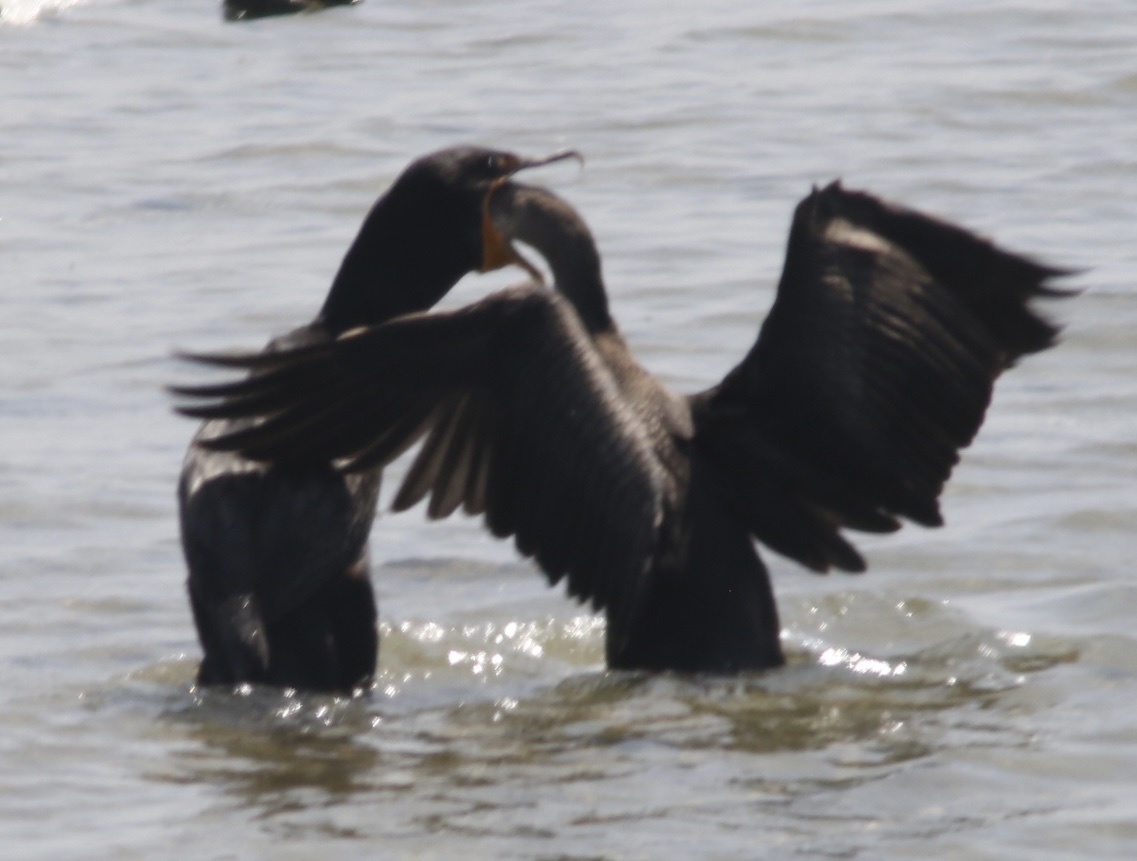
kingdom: Animalia
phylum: Chordata
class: Aves
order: Suliformes
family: Phalacrocoracidae
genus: Phalacrocorax
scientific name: Phalacrocorax auritus
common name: Double-crested cormorant
